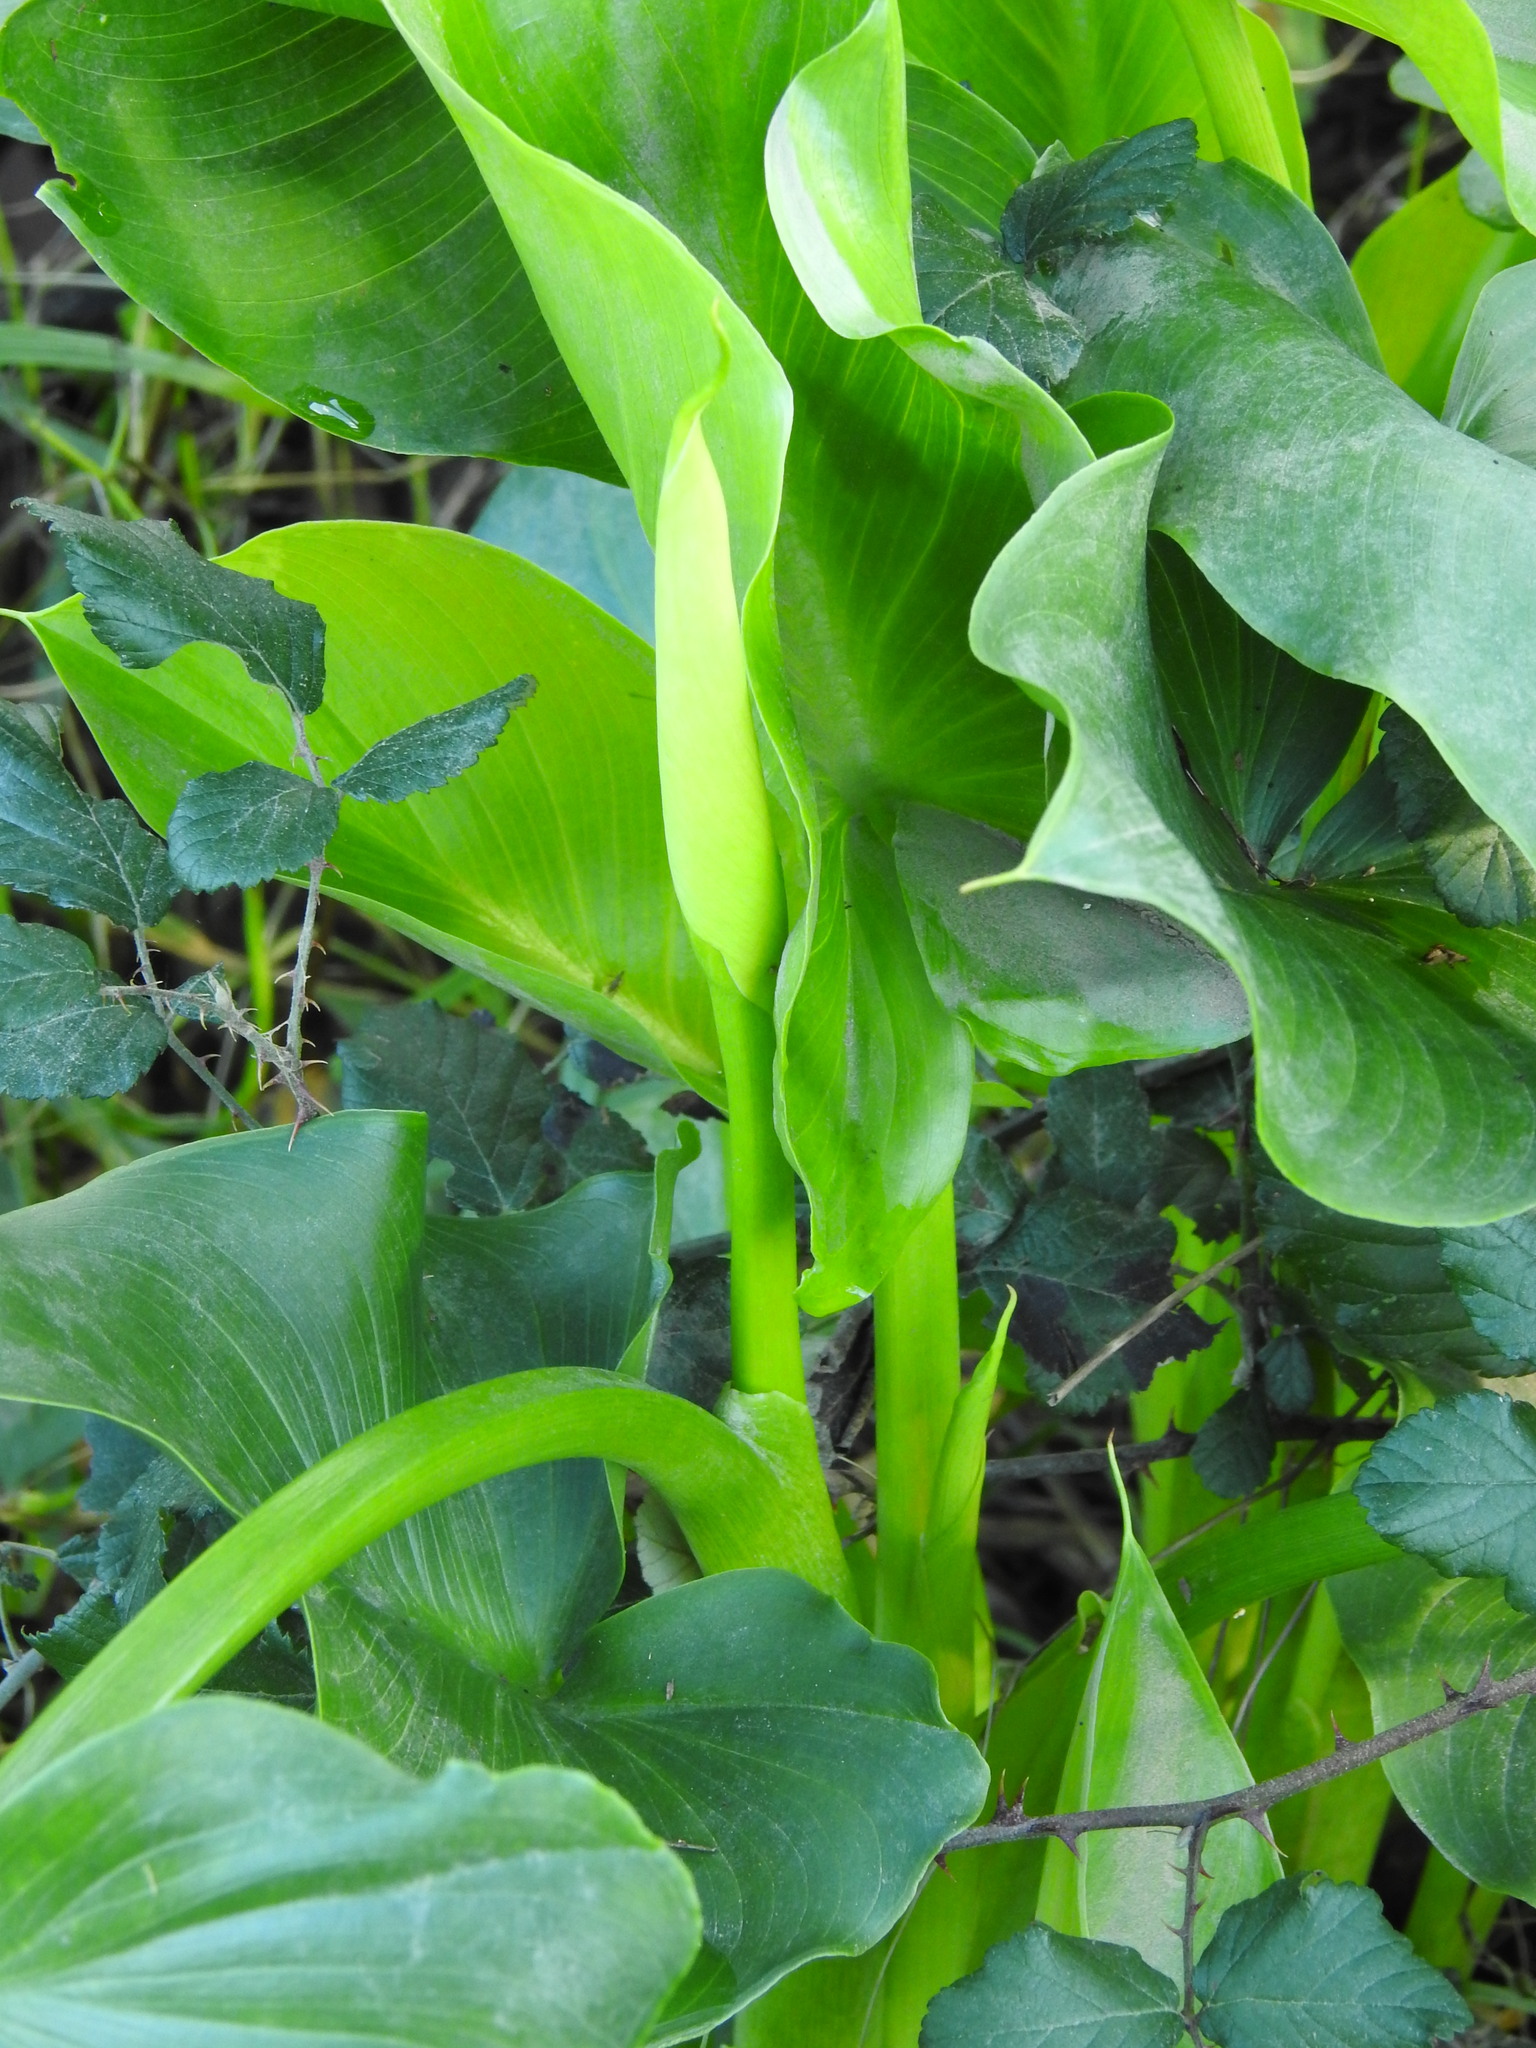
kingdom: Plantae
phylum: Tracheophyta
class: Liliopsida
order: Alismatales
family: Araceae
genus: Zantedeschia
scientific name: Zantedeschia aethiopica
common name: Altar-lily
